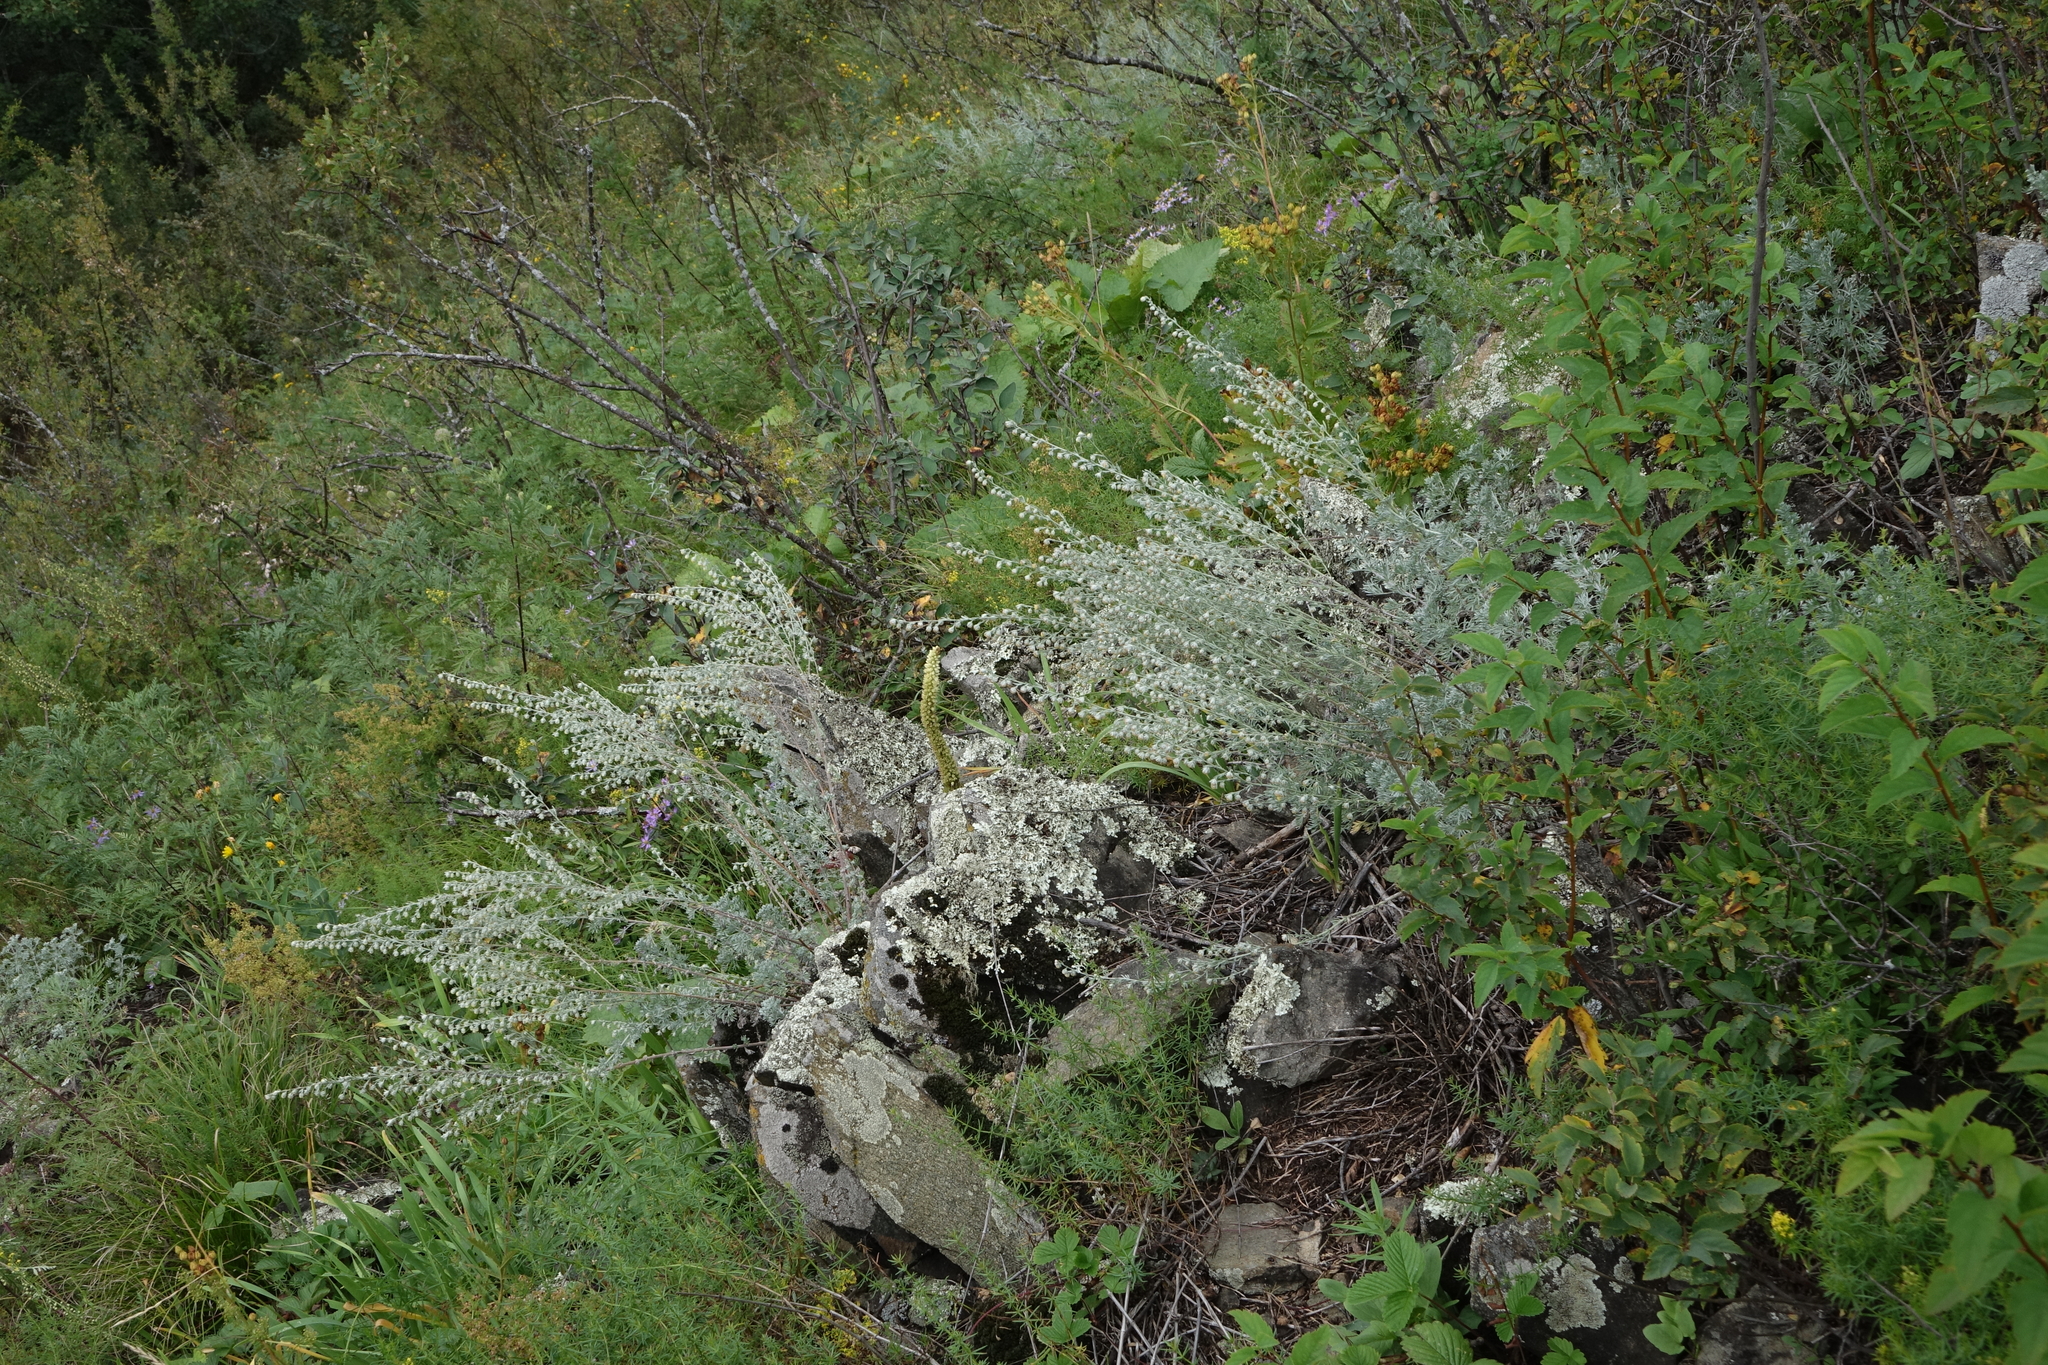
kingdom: Plantae
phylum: Tracheophyta
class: Magnoliopsida
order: Asterales
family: Asteraceae
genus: Artemisia
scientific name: Artemisia frigida
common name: Prairie sagewort
